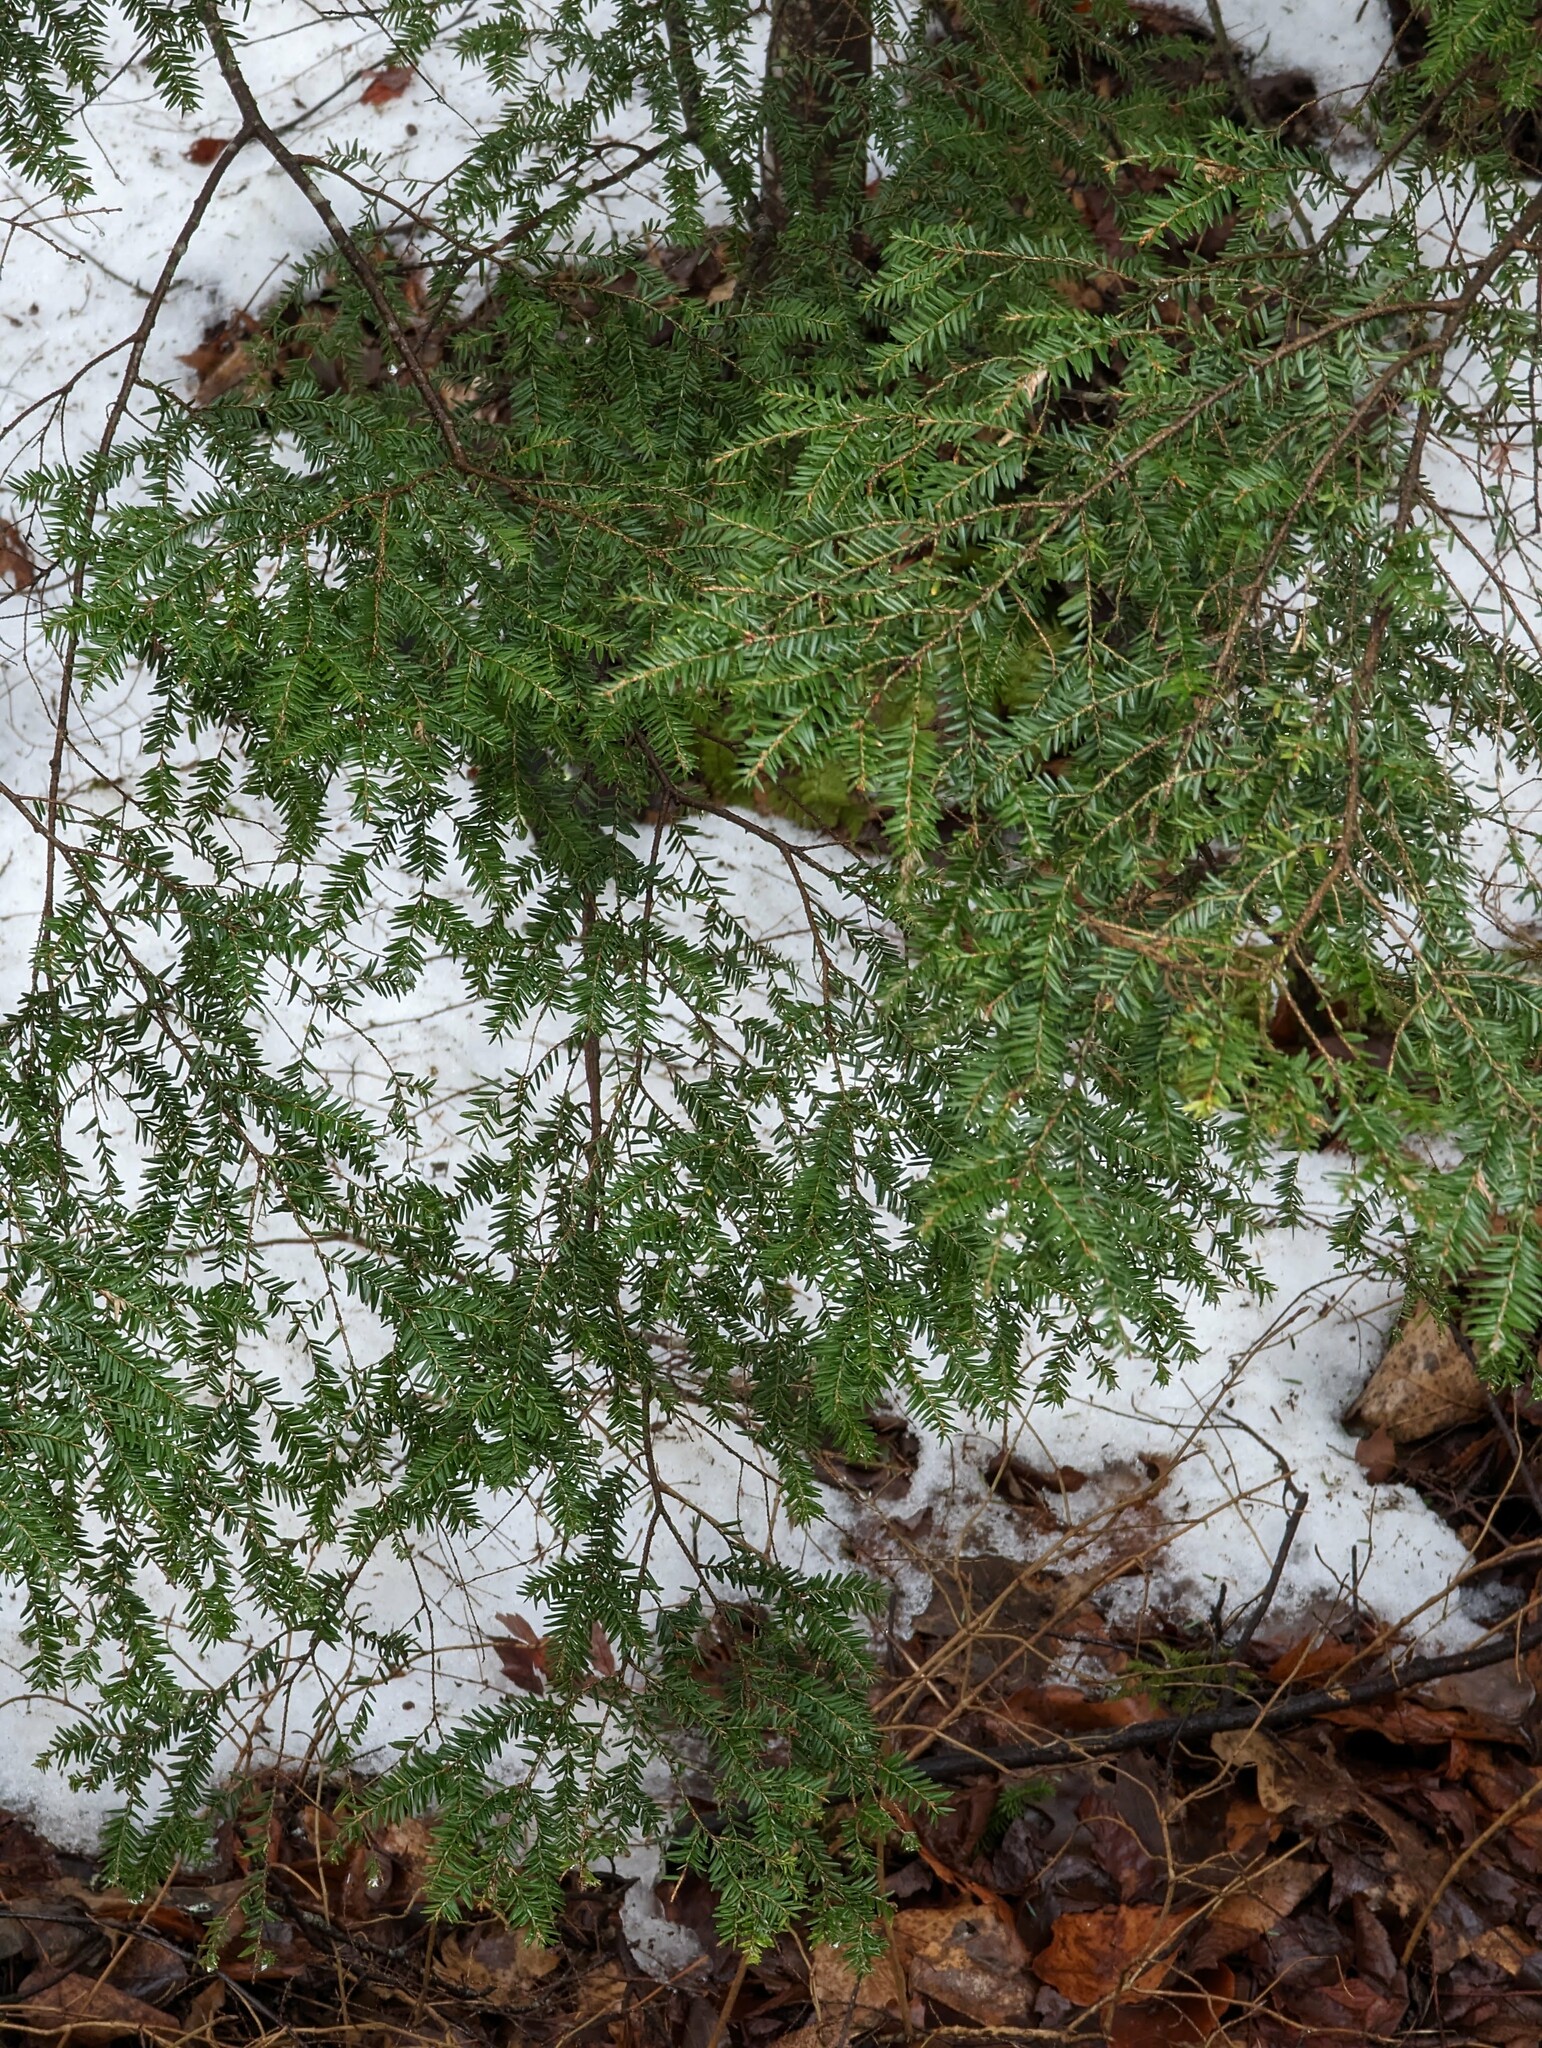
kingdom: Plantae
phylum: Tracheophyta
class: Pinopsida
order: Pinales
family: Pinaceae
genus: Tsuga
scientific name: Tsuga canadensis
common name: Eastern hemlock
